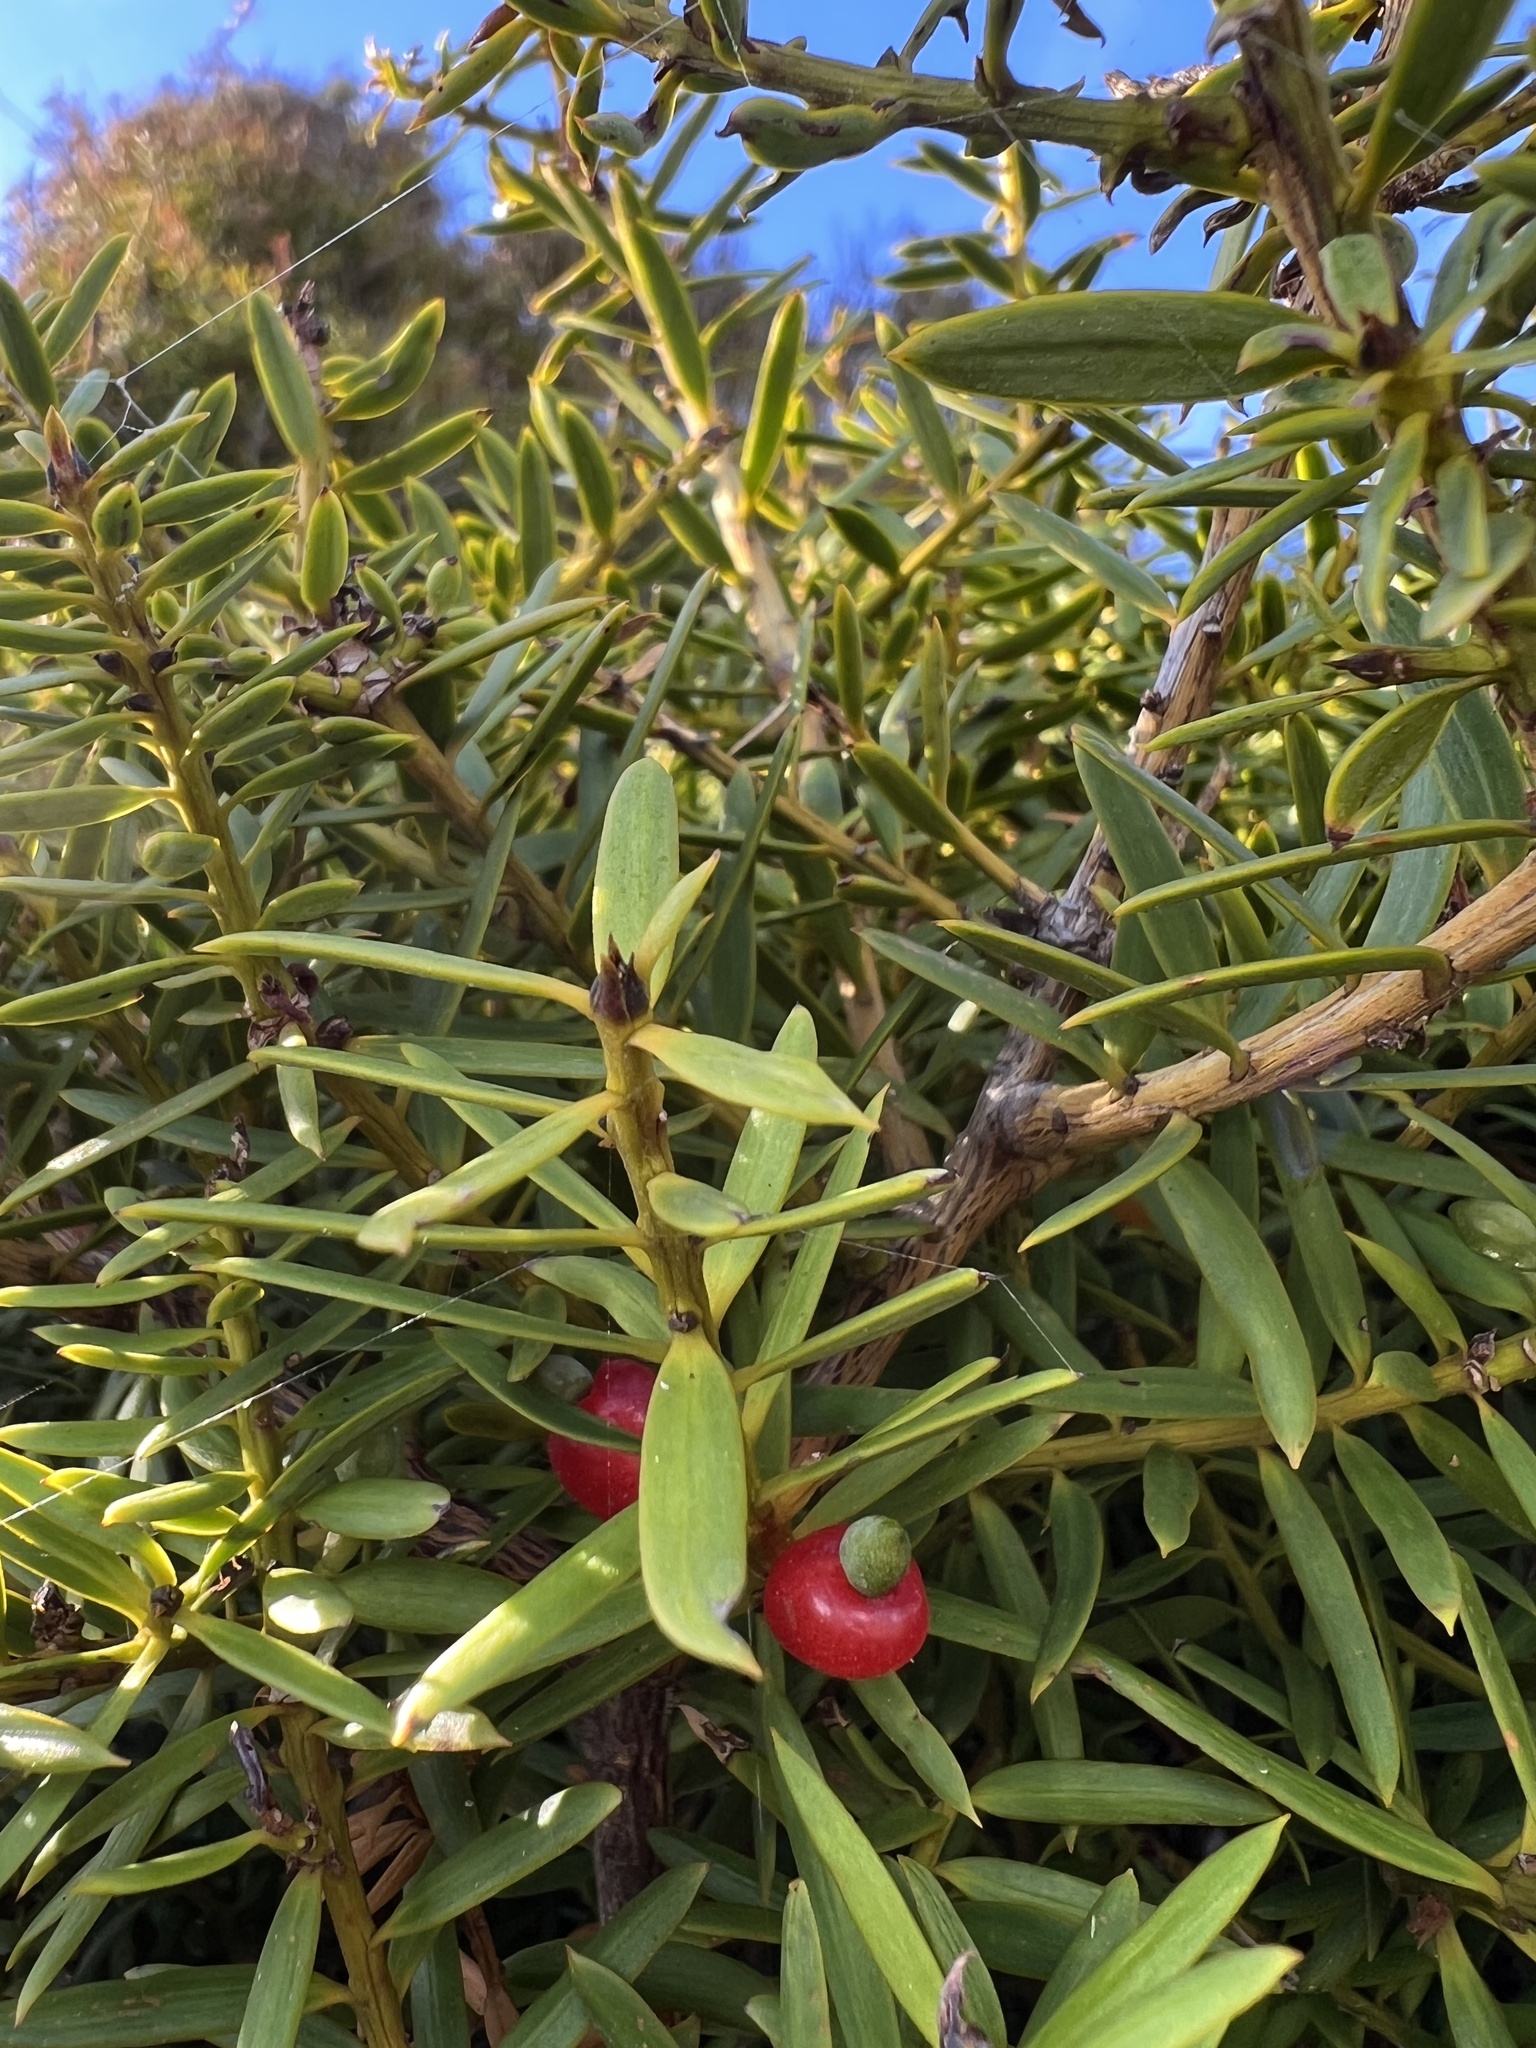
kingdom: Plantae
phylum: Tracheophyta
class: Pinopsida
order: Pinales
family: Podocarpaceae
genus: Podocarpus
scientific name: Podocarpus totara
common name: Totara
